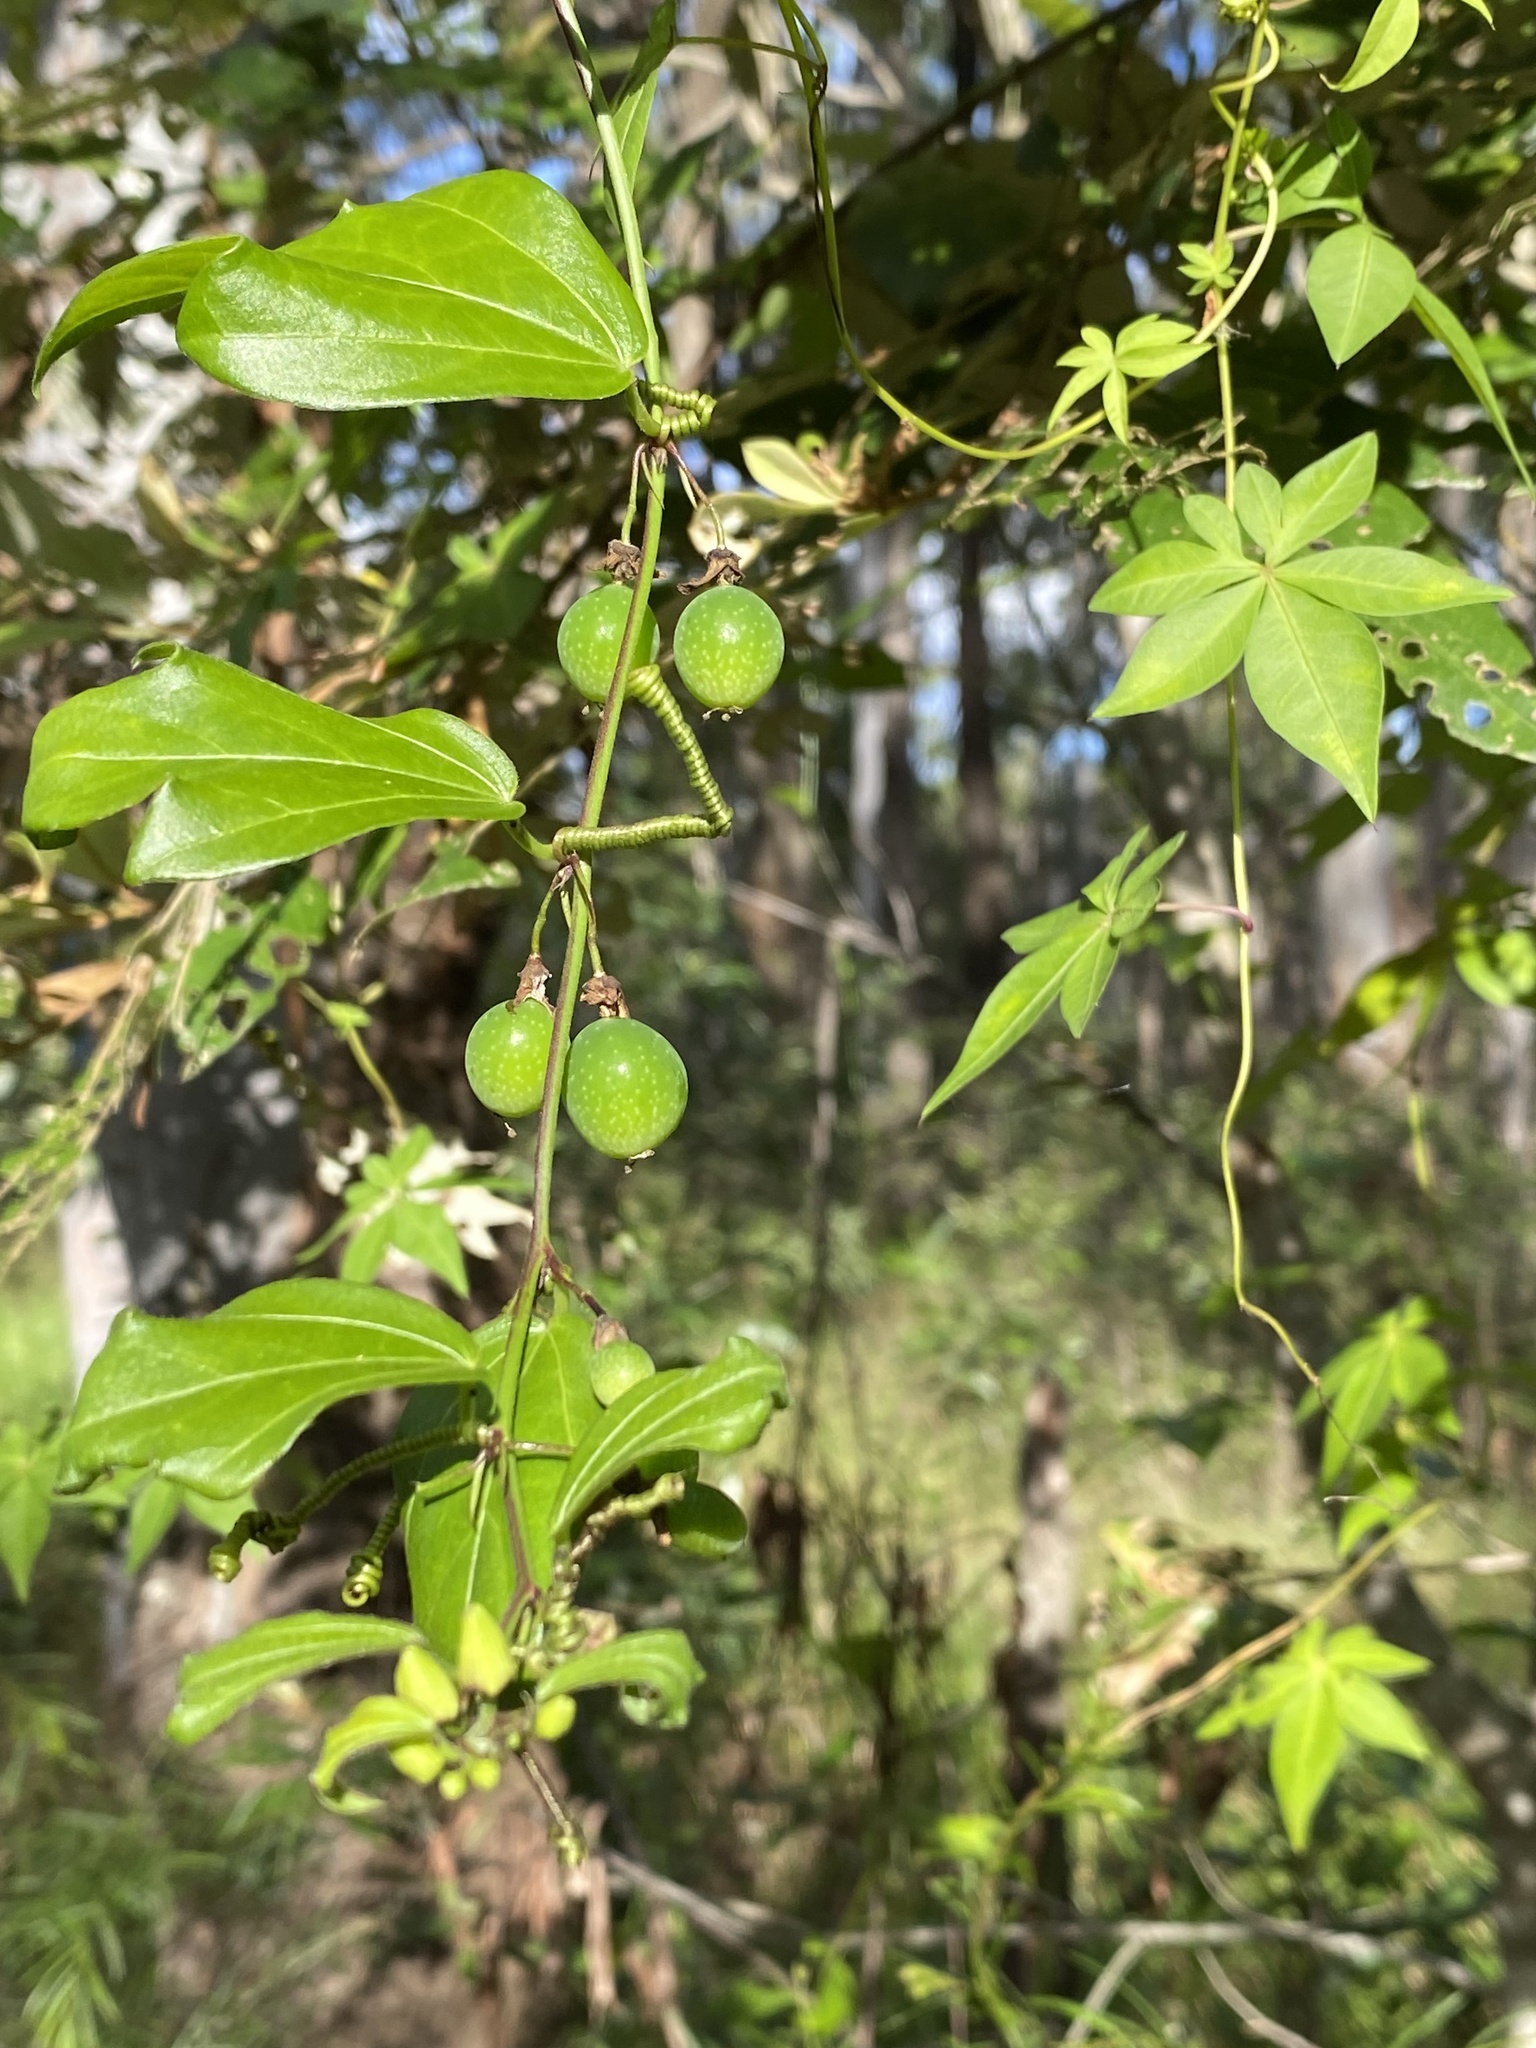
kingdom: Plantae
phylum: Tracheophyta
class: Magnoliopsida
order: Malpighiales
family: Passifloraceae
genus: Passiflora
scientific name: Passiflora suberosa
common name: Wild passionfruit
